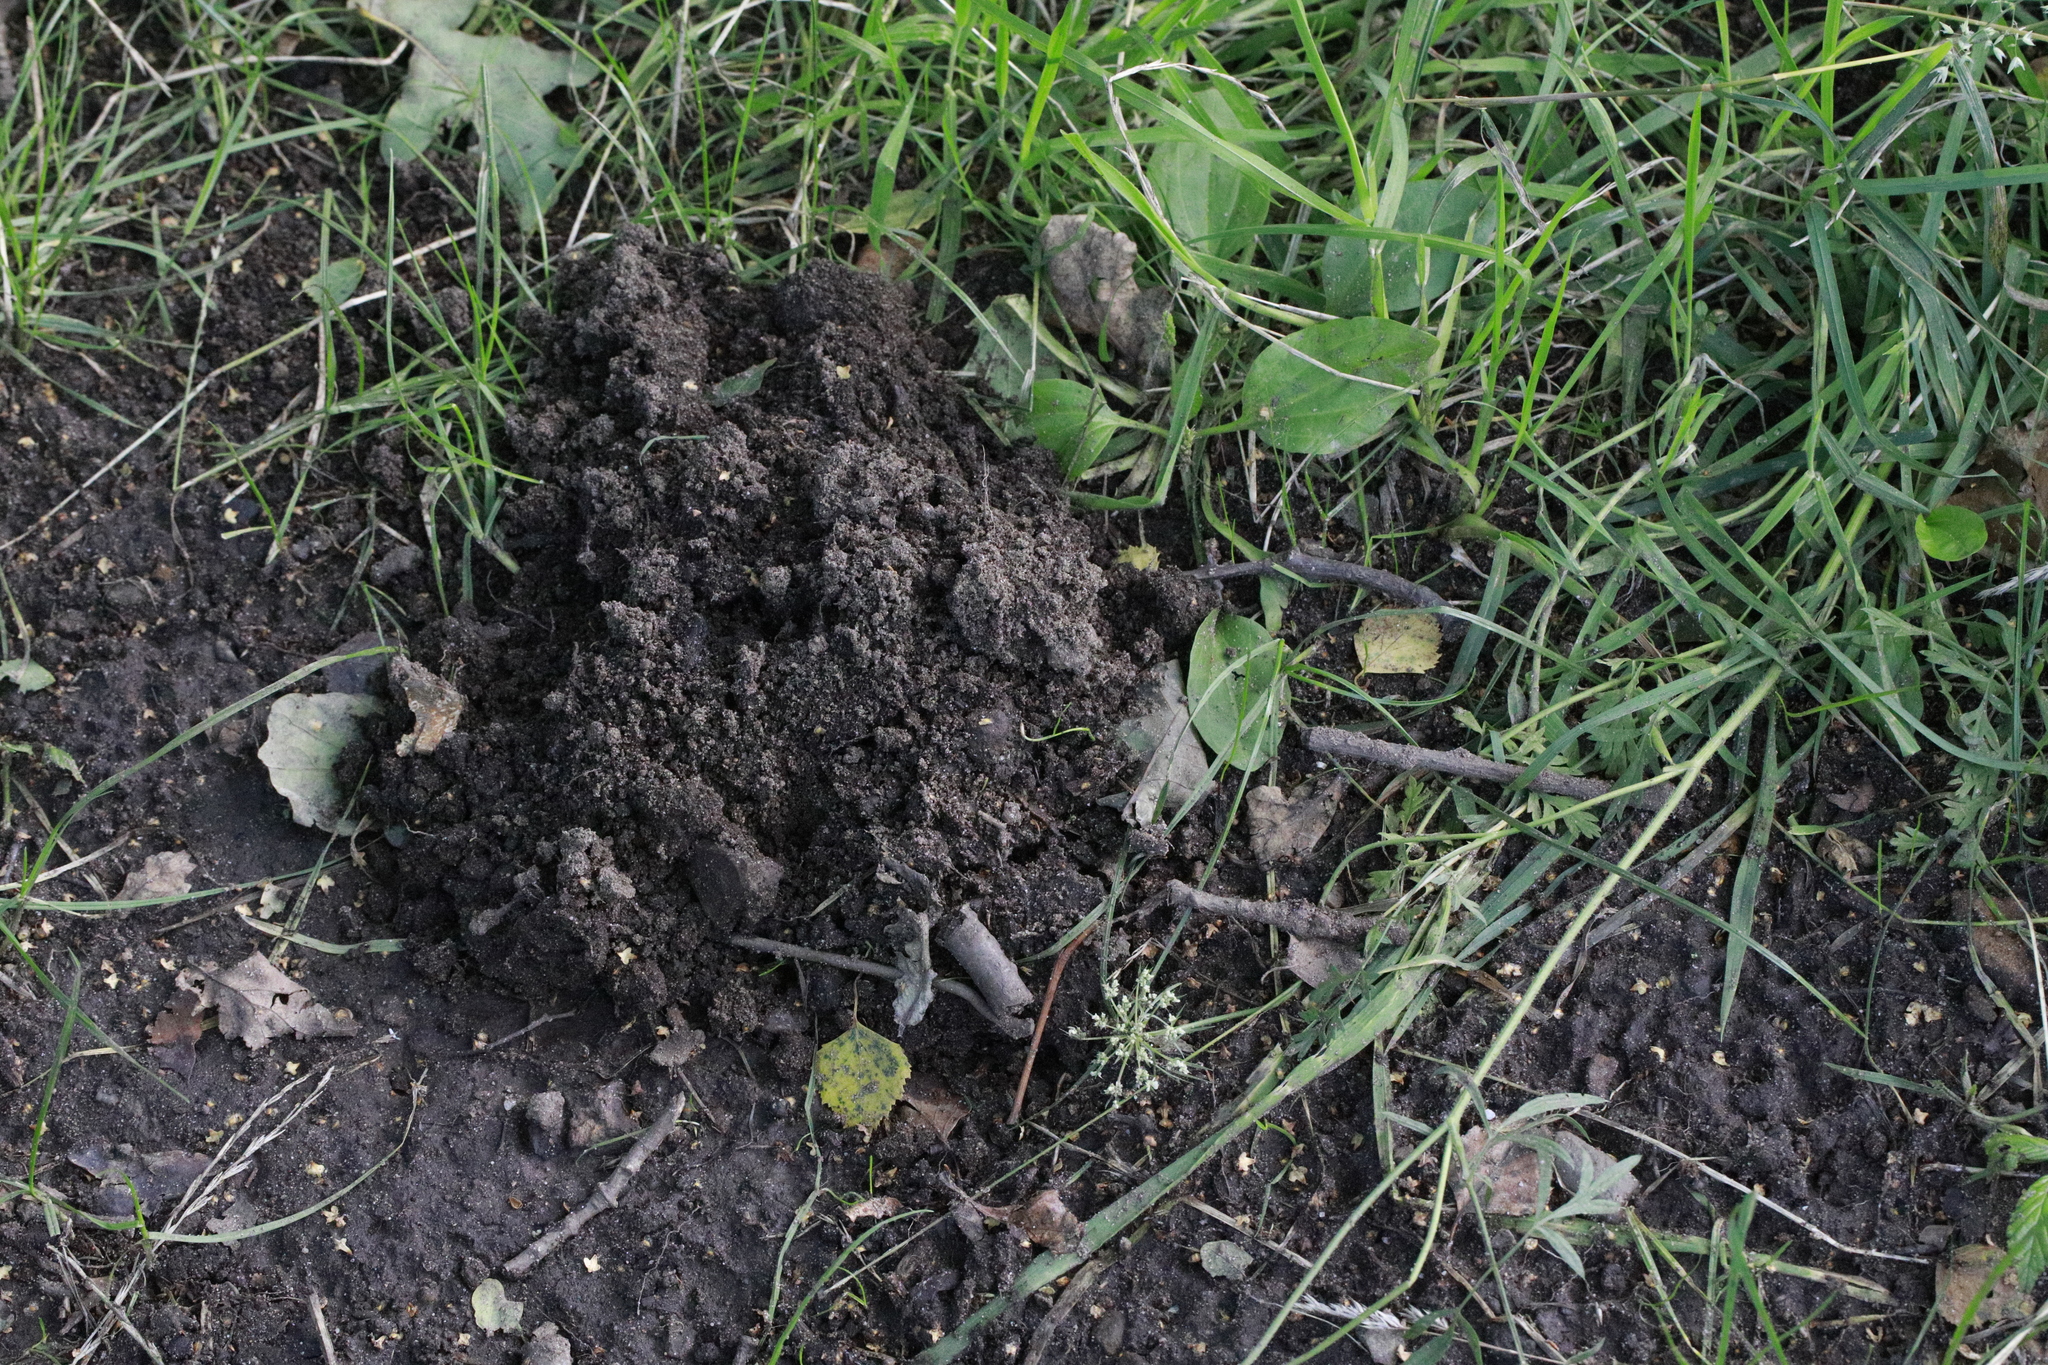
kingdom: Animalia
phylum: Chordata
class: Mammalia
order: Soricomorpha
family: Talpidae
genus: Talpa
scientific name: Talpa europaea
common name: European mole
